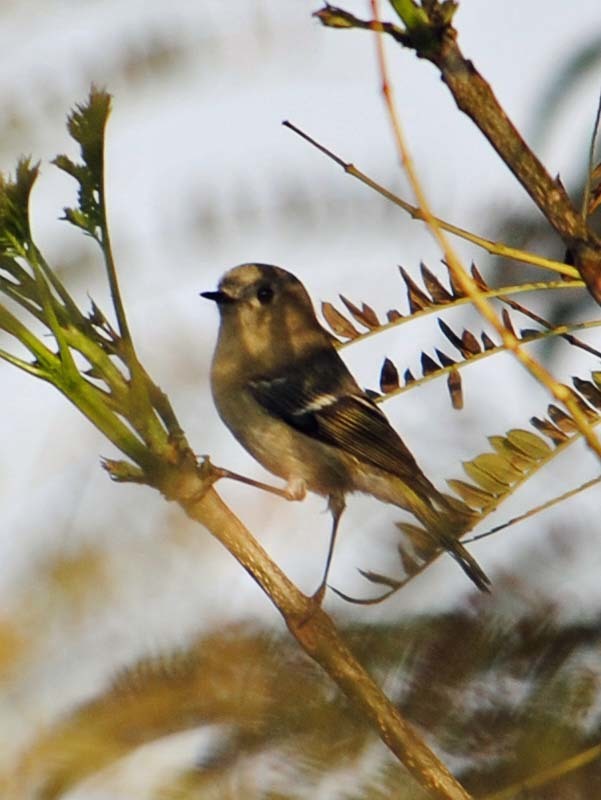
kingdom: Animalia
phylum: Chordata
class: Aves
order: Passeriformes
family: Regulidae
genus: Regulus
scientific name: Regulus calendula
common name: Ruby-crowned kinglet
